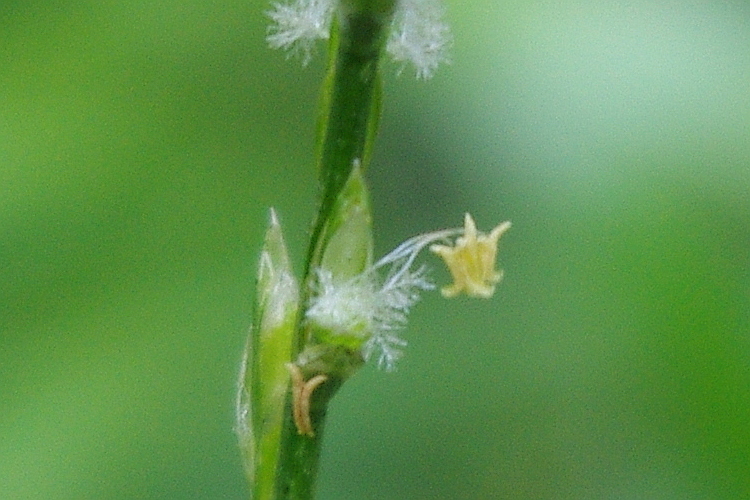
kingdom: Plantae
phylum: Tracheophyta
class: Liliopsida
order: Poales
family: Poaceae
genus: Lolium
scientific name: Lolium perenne
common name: Perennial ryegrass
